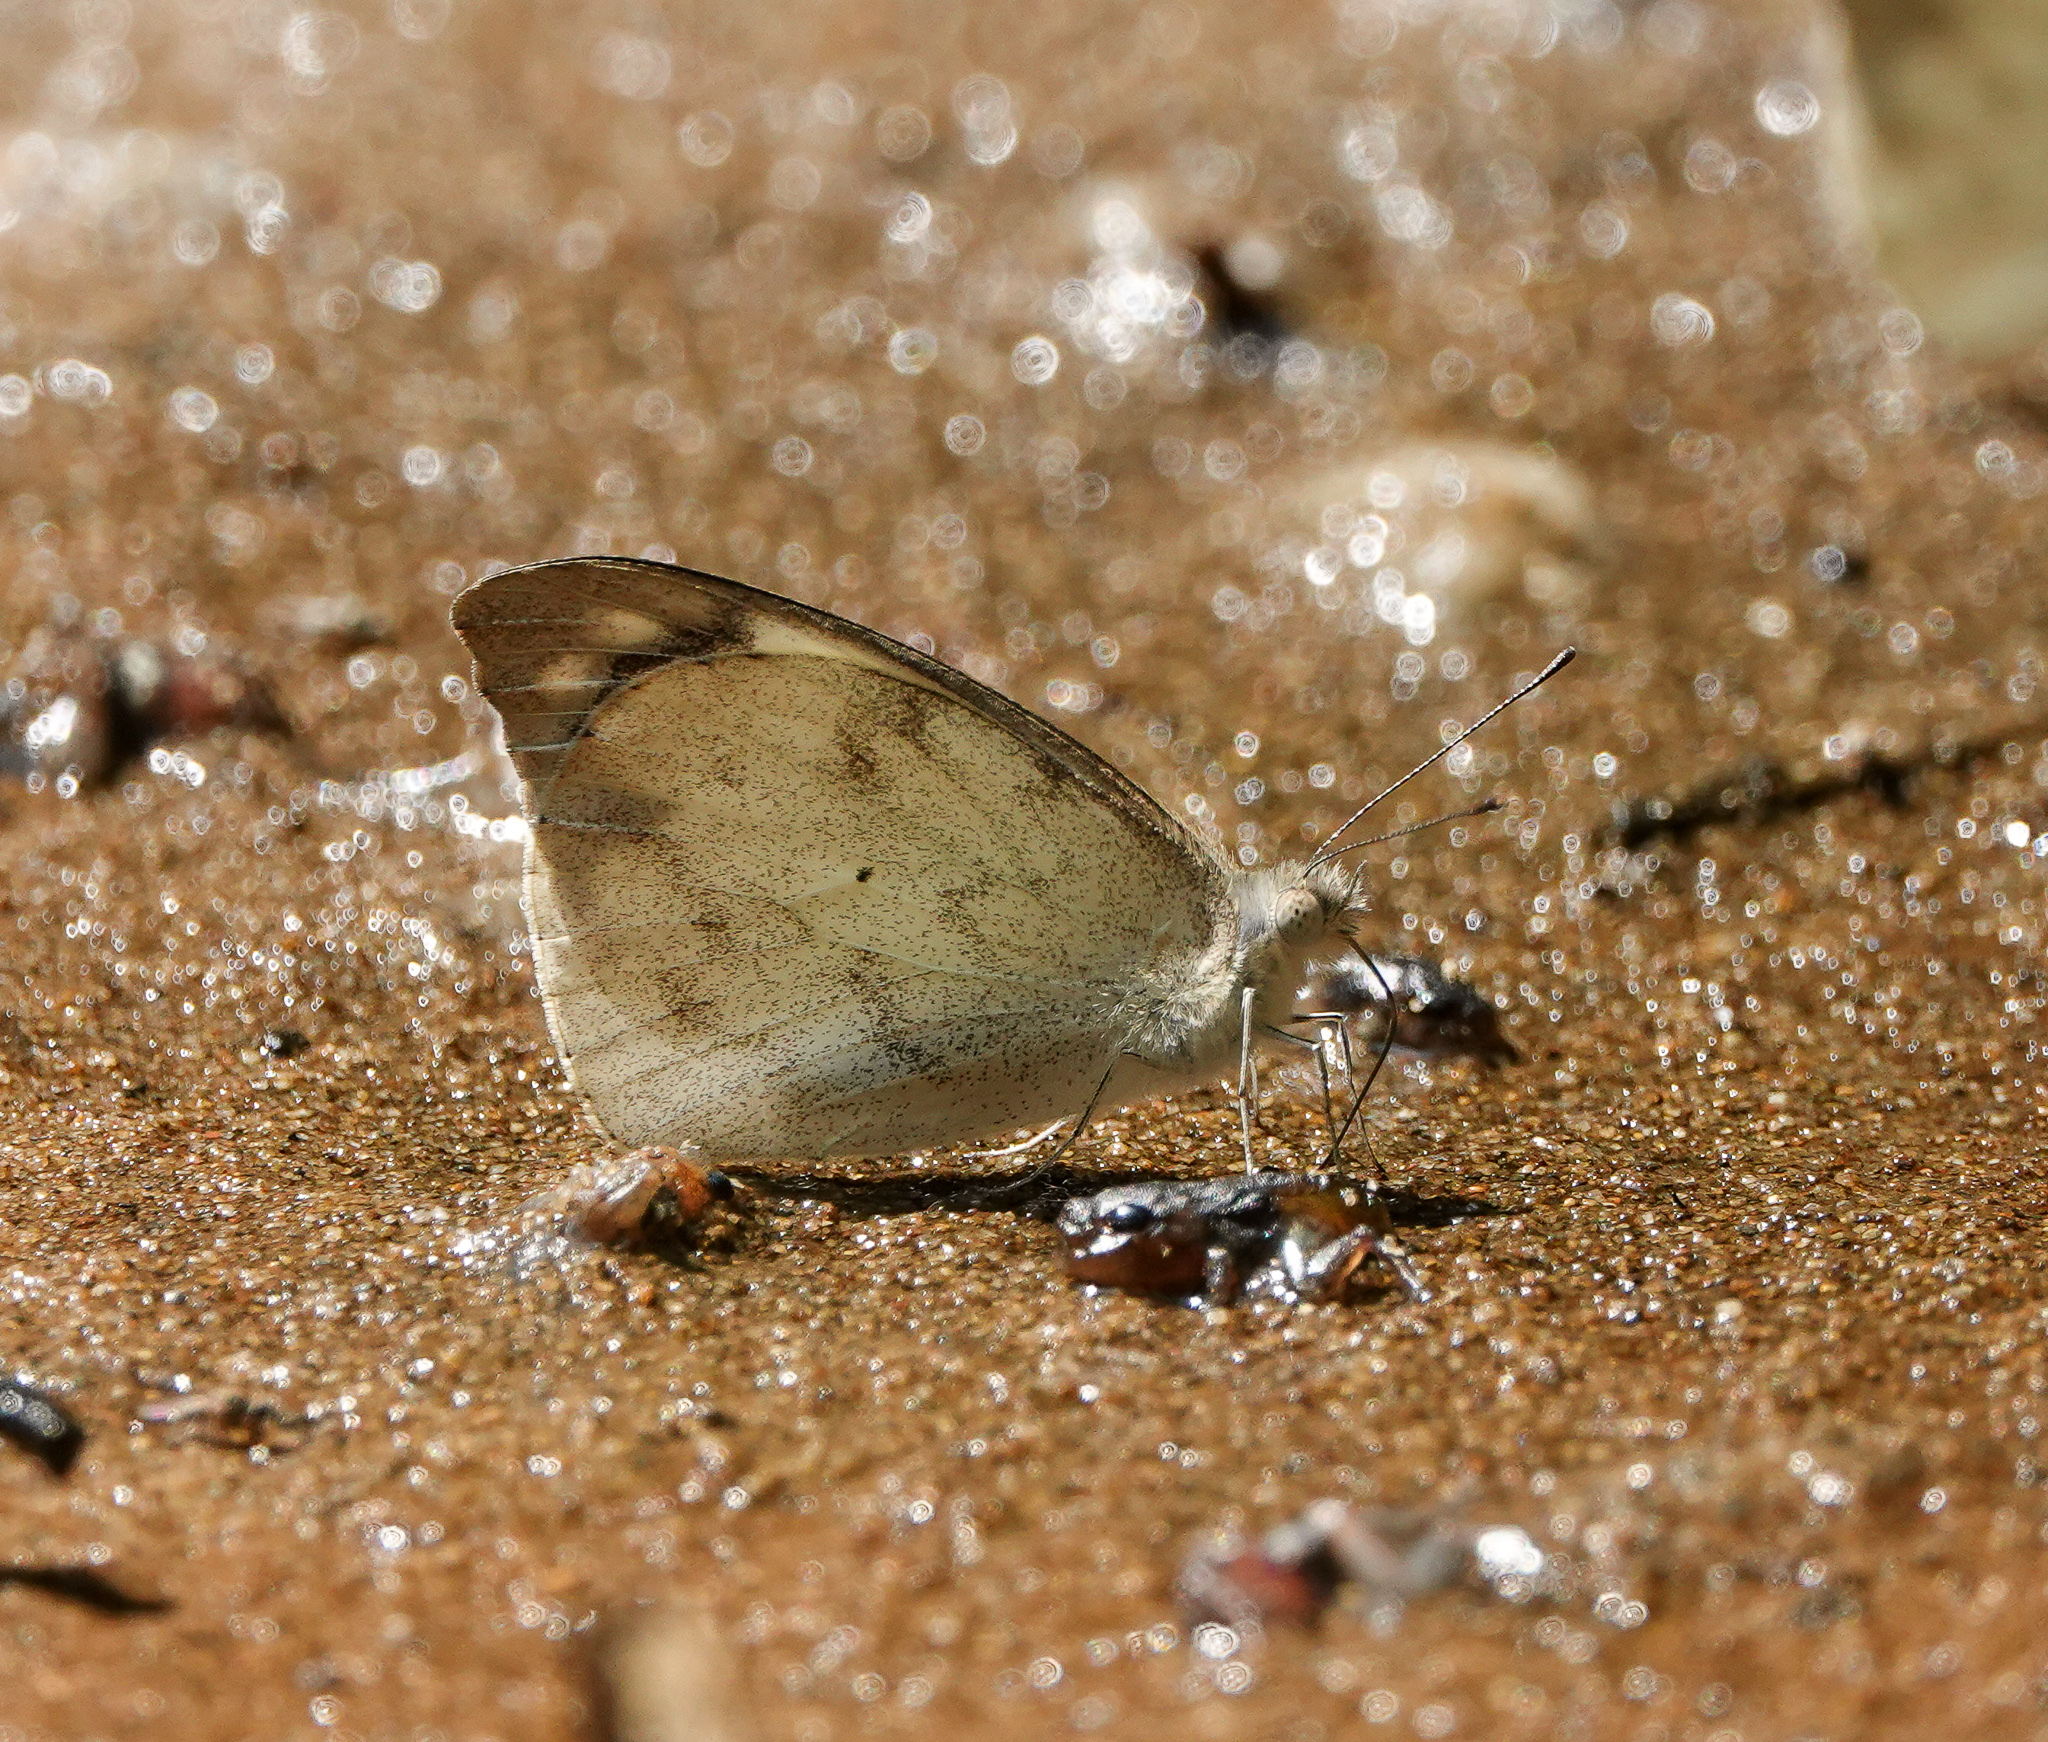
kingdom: Animalia
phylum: Arthropoda
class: Insecta
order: Lepidoptera
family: Pieridae
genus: Appias
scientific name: Appias indra
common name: Plain puffin
